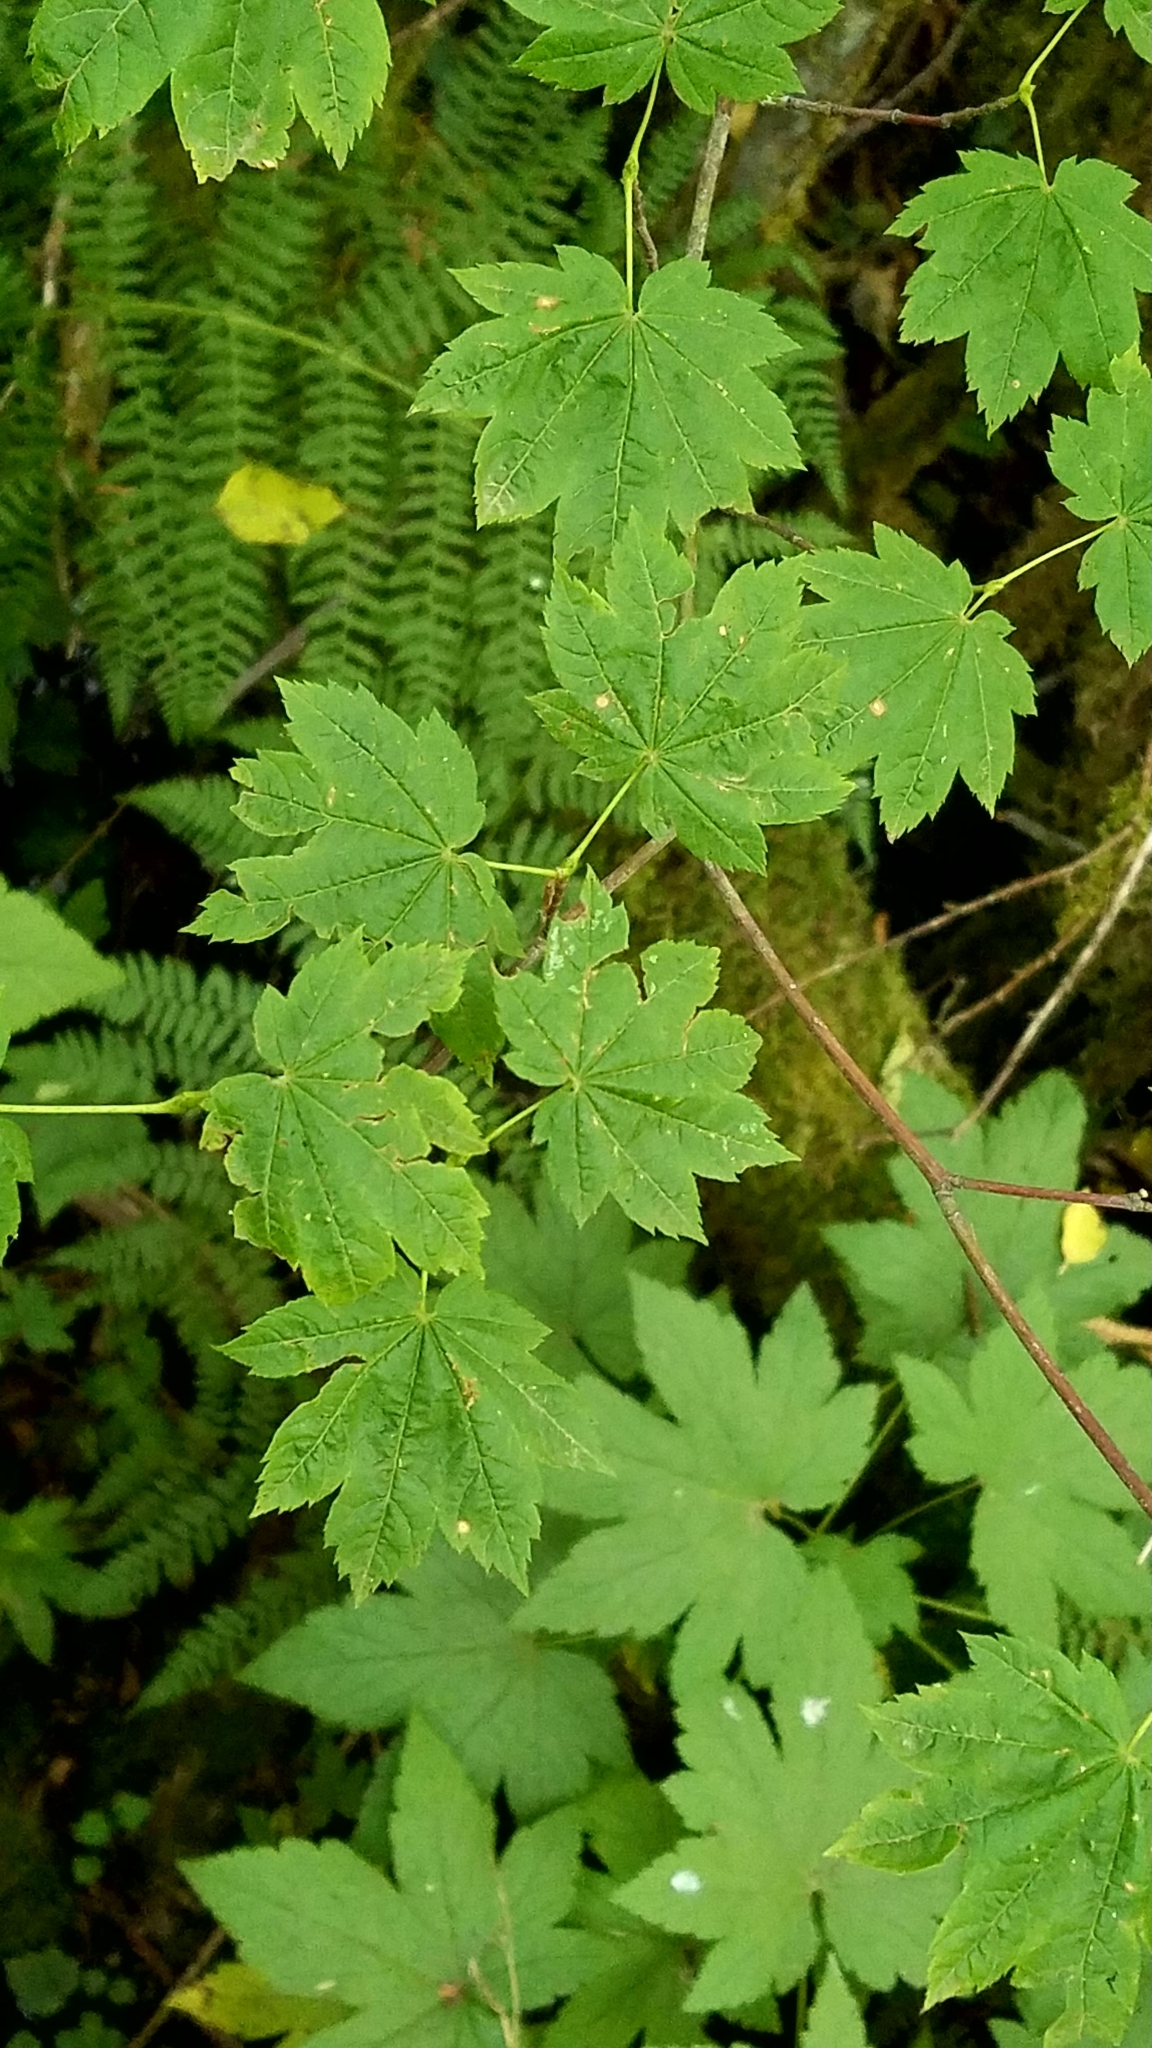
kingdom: Plantae
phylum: Tracheophyta
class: Magnoliopsida
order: Sapindales
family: Sapindaceae
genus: Acer
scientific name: Acer circinatum
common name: Vine maple
